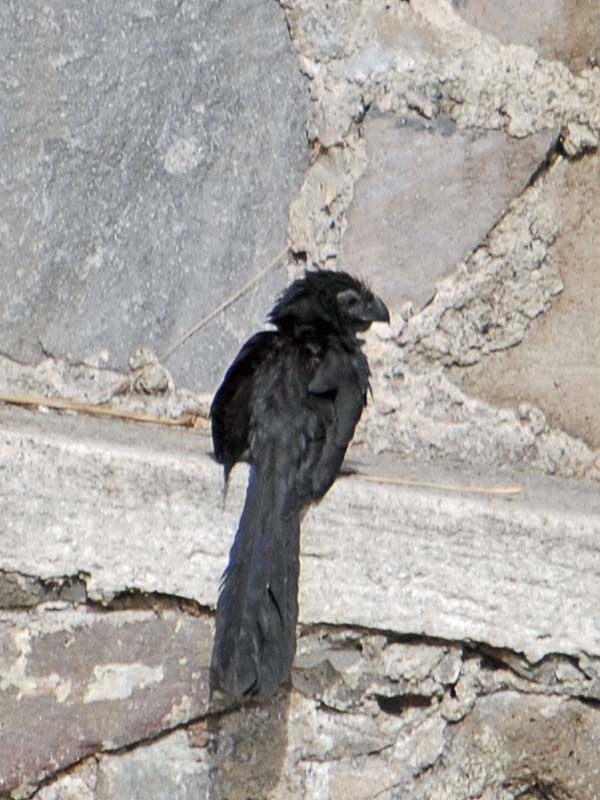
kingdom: Animalia
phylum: Chordata
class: Aves
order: Cuculiformes
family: Cuculidae
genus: Crotophaga
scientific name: Crotophaga sulcirostris
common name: Groove-billed ani
